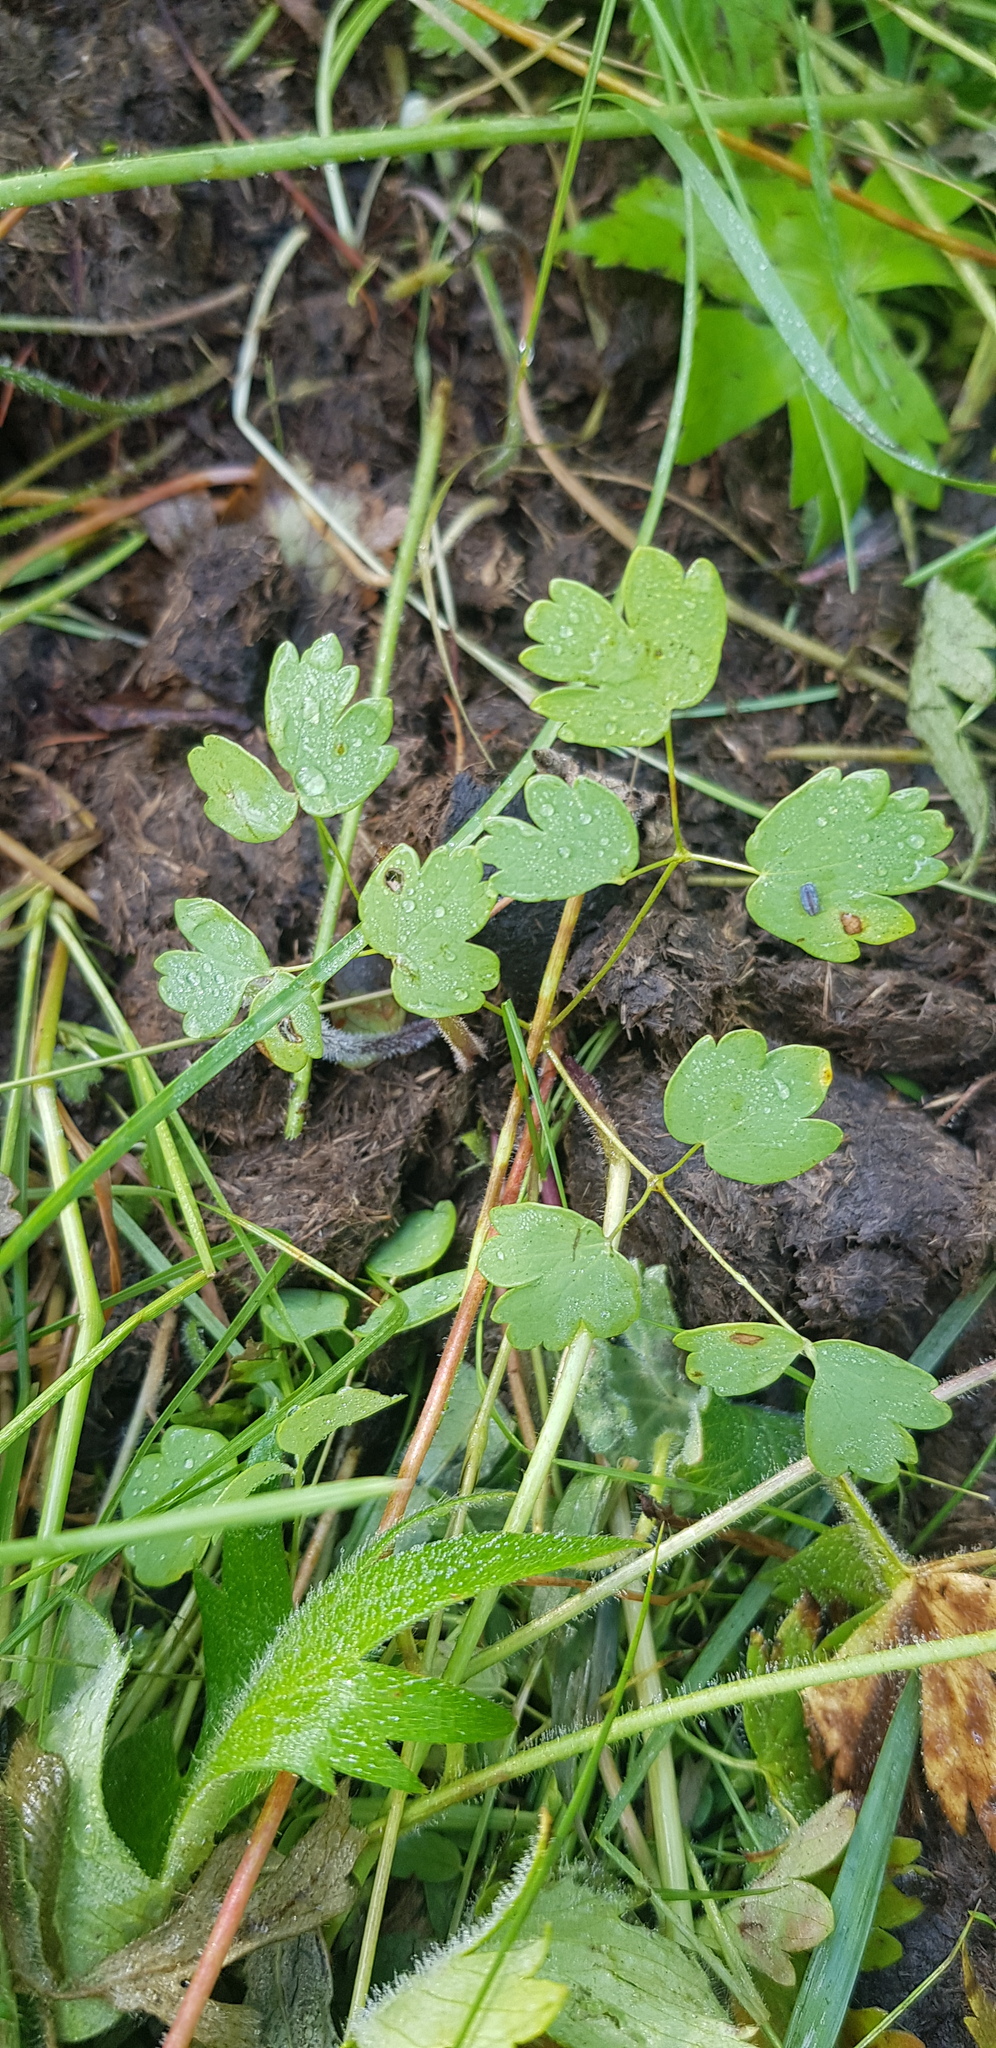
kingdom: Plantae
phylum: Tracheophyta
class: Magnoliopsida
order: Ranunculales
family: Ranunculaceae
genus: Thalictrum
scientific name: Thalictrum minus
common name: Lesser meadow-rue
